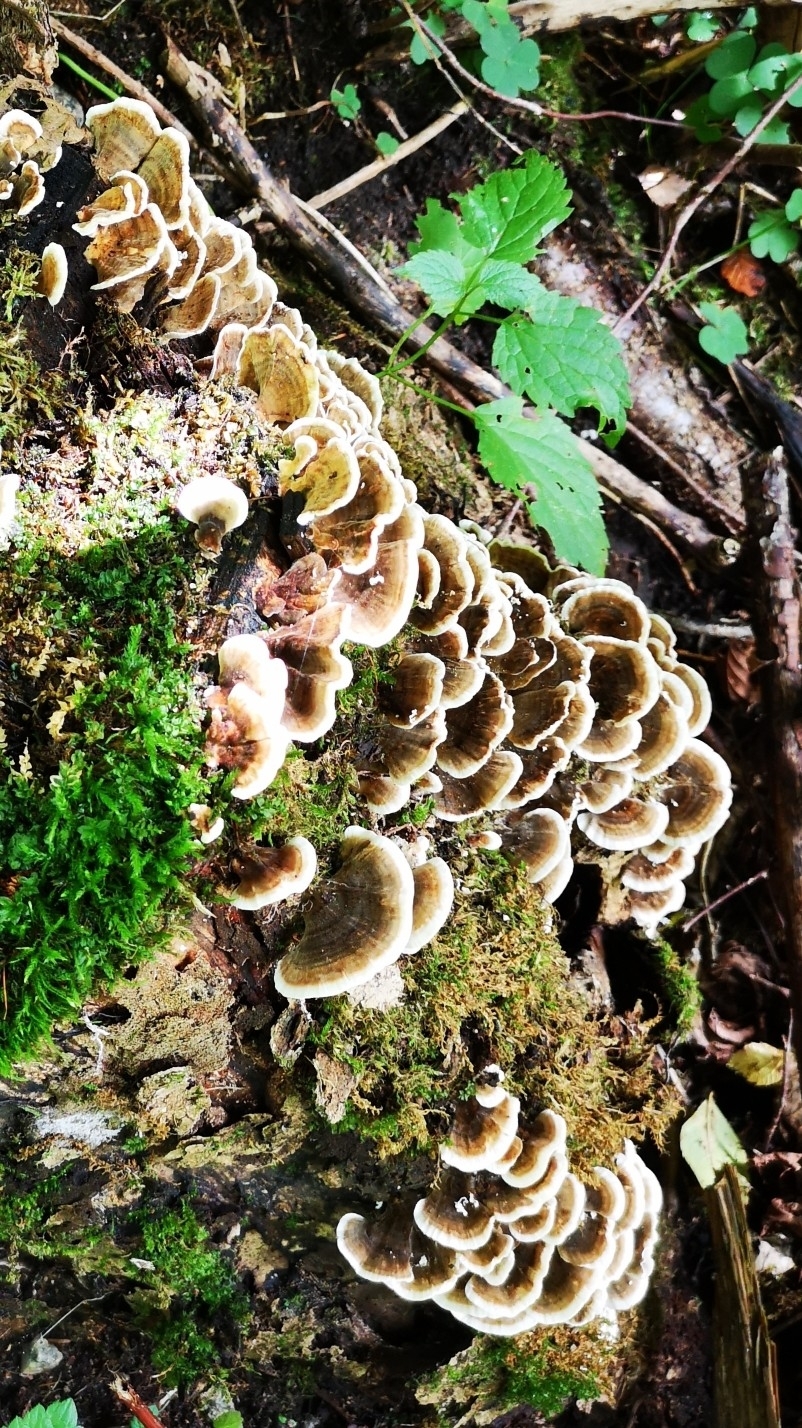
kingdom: Fungi
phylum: Basidiomycota
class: Agaricomycetes
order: Polyporales
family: Polyporaceae
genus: Trametes
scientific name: Trametes versicolor
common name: Turkeytail
